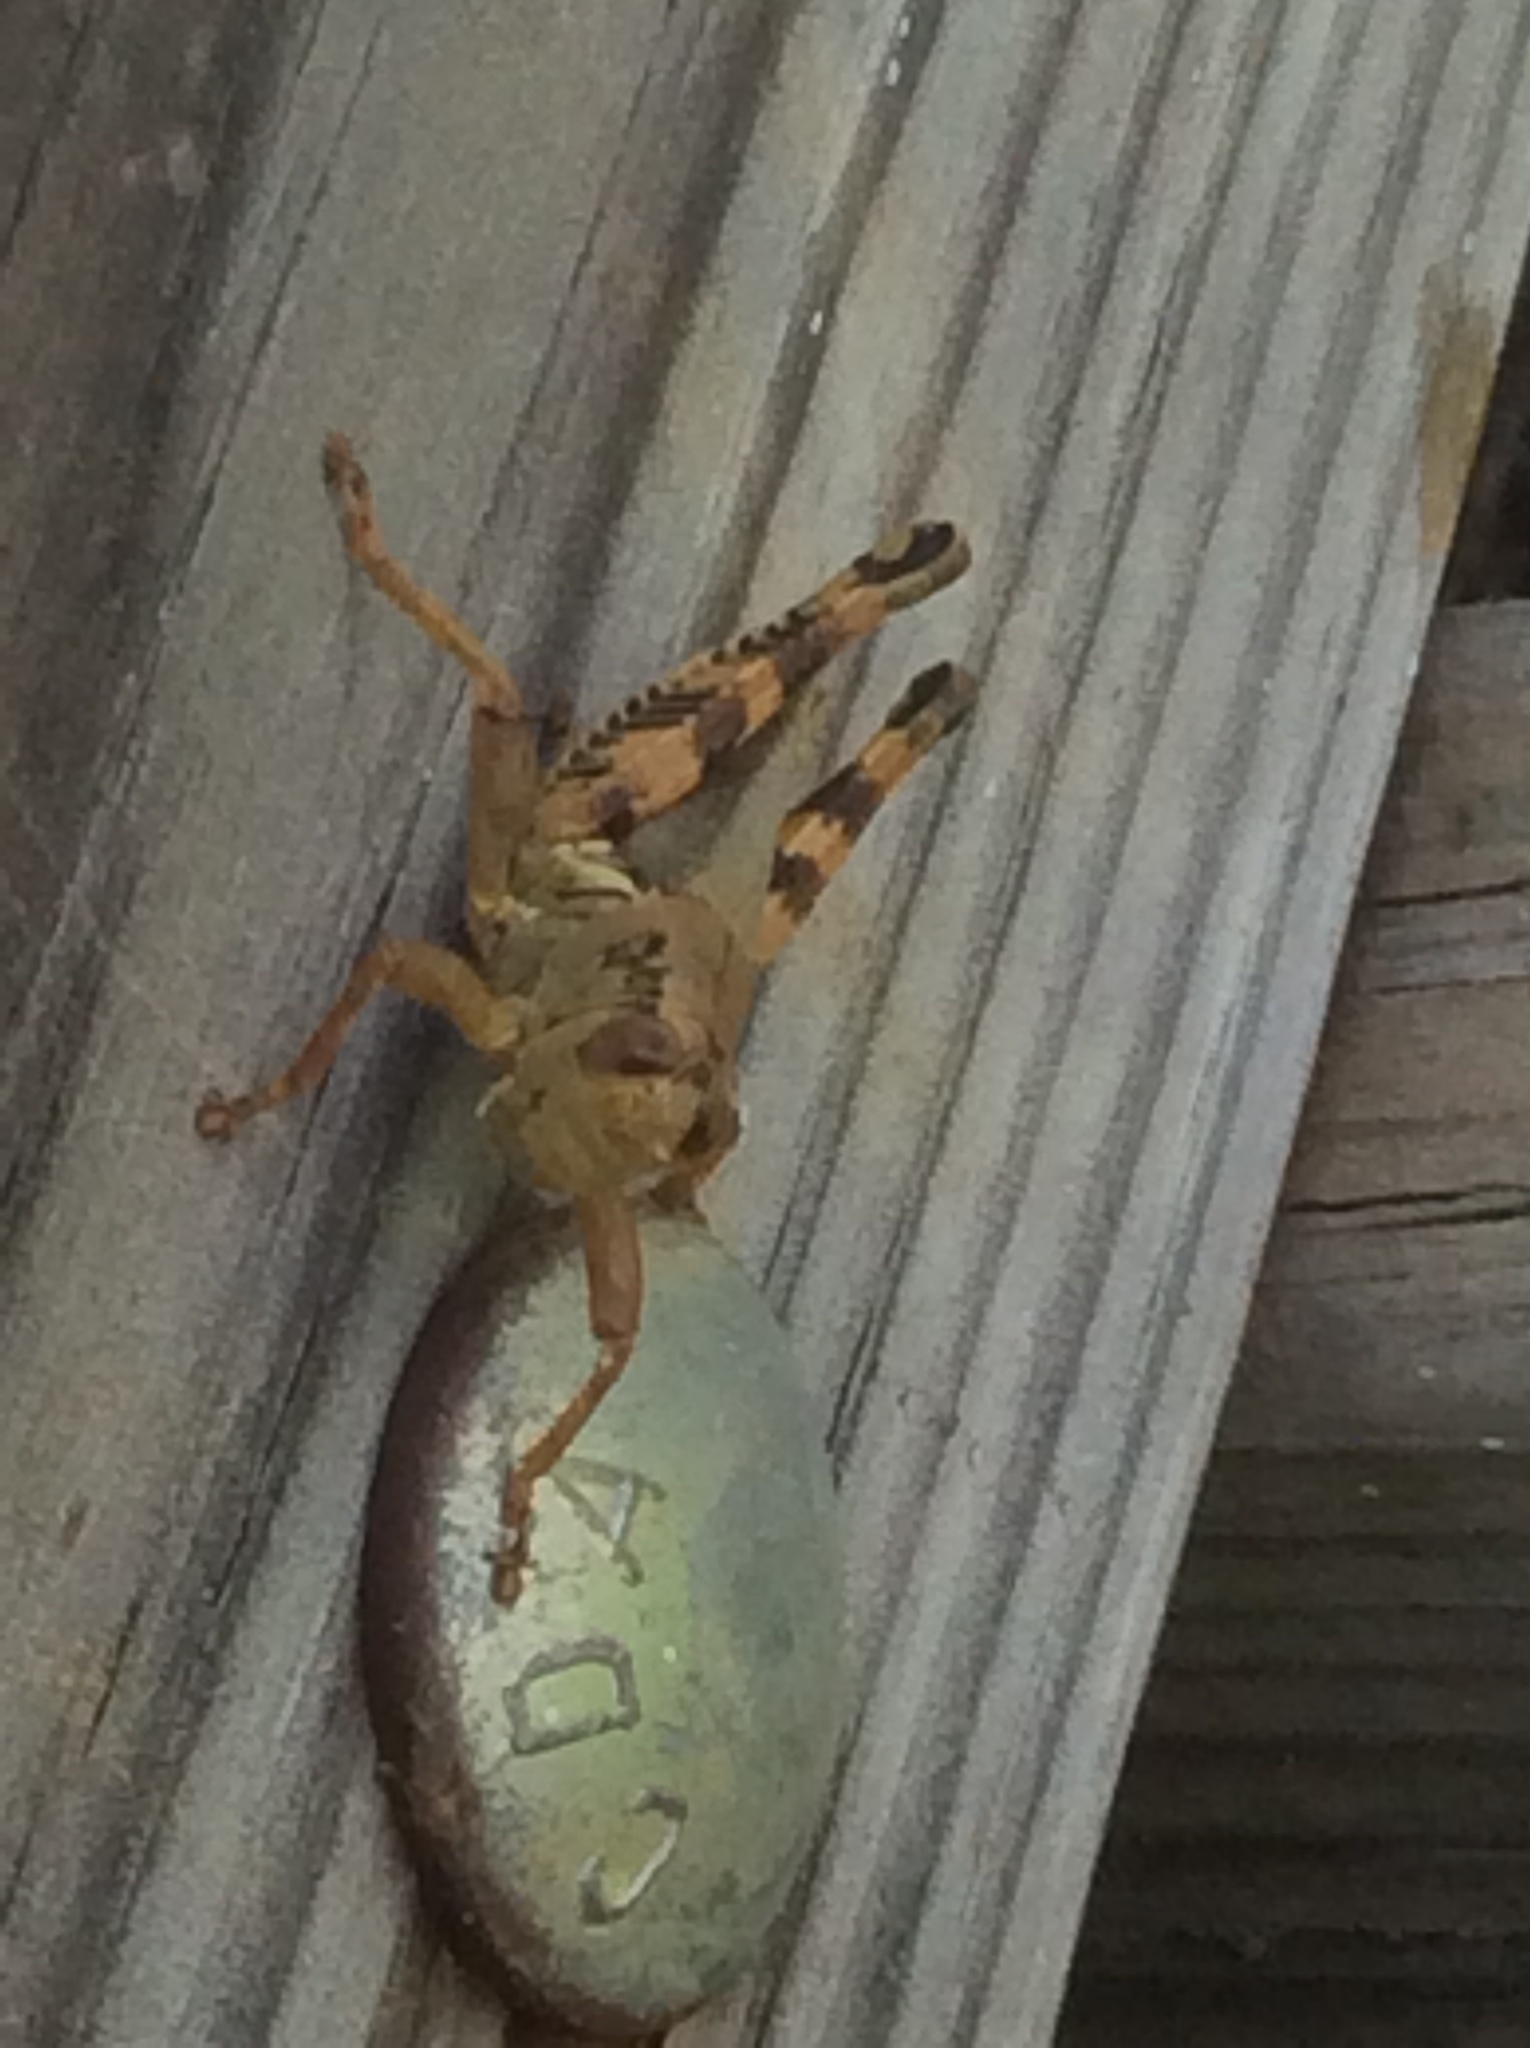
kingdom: Animalia
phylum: Arthropoda
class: Insecta
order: Orthoptera
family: Acrididae
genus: Melanoplus
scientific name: Melanoplus ponderosus
